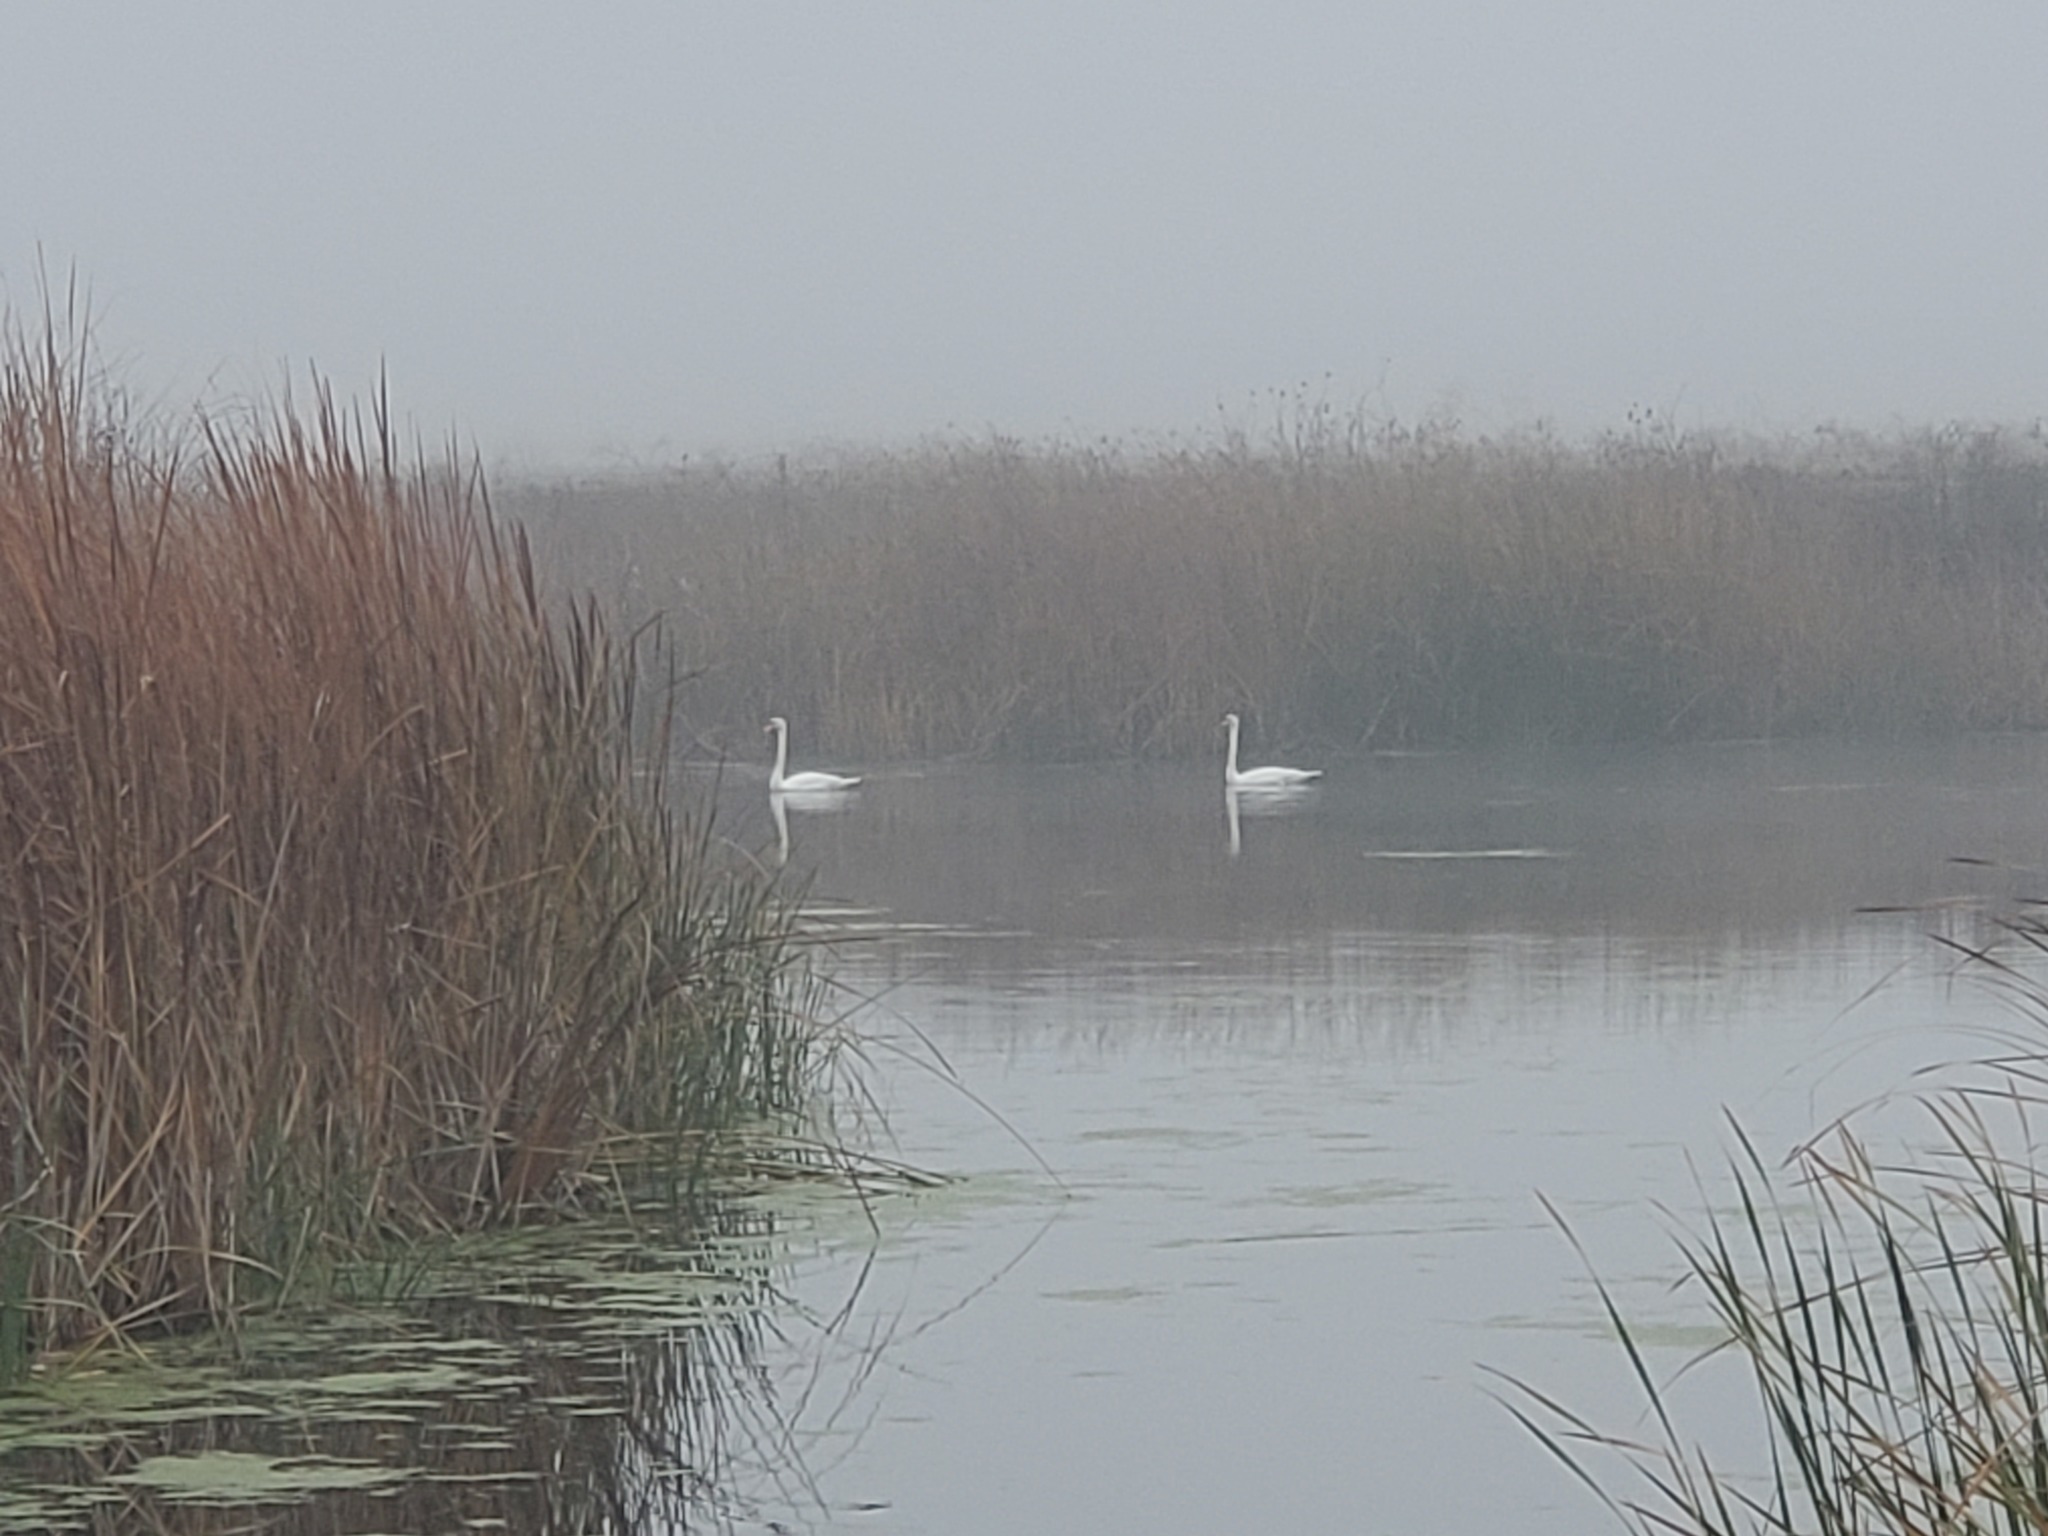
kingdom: Animalia
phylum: Chordata
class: Aves
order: Anseriformes
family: Anatidae
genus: Cygnus
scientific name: Cygnus olor
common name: Mute swan
